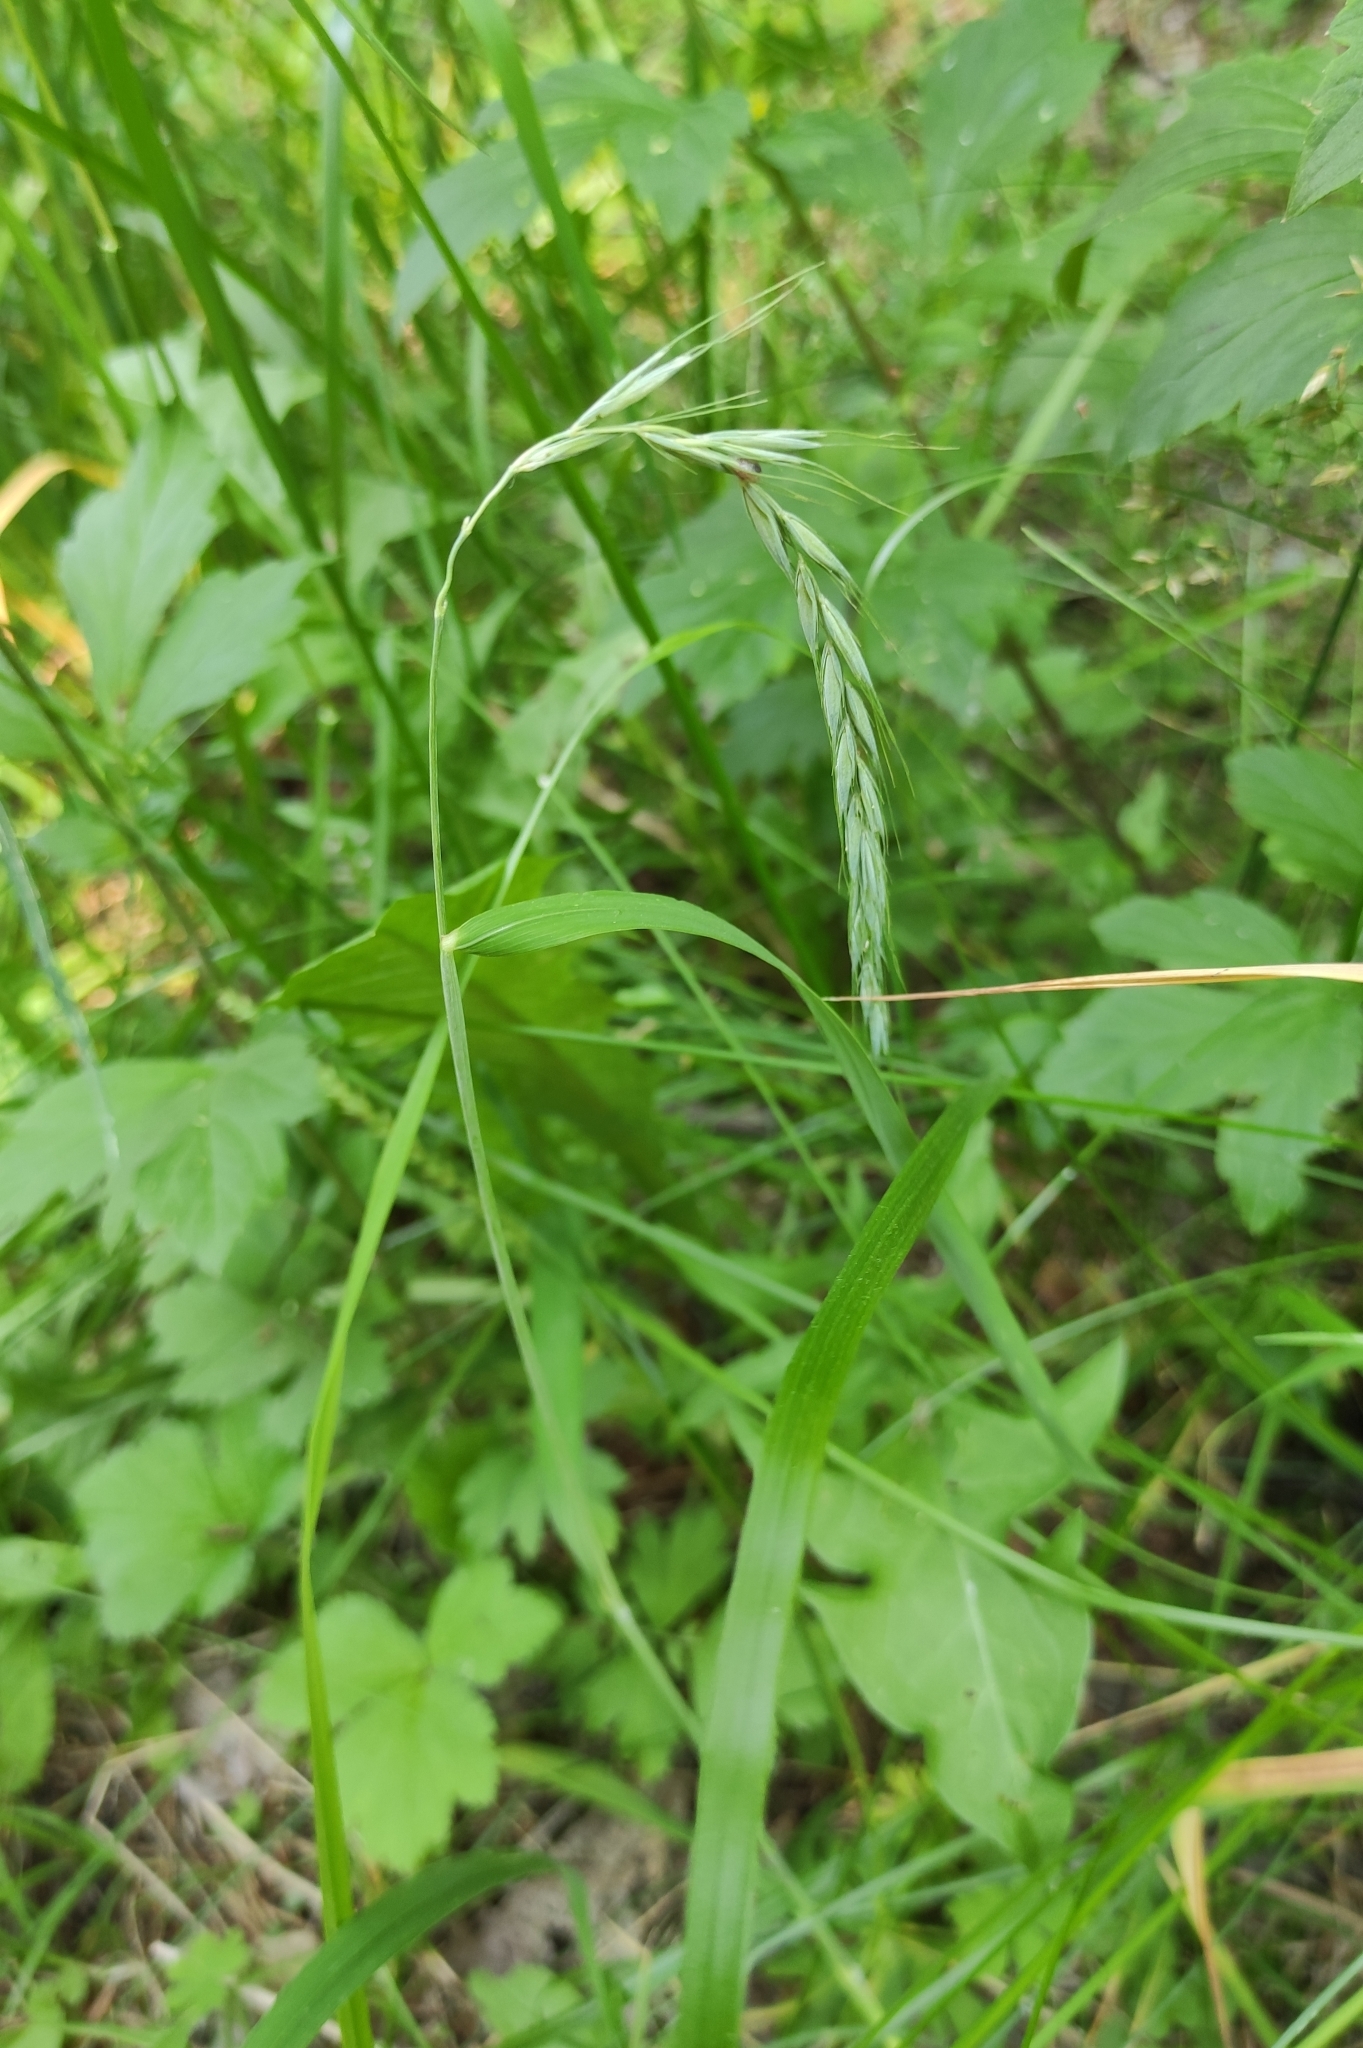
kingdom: Plantae
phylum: Tracheophyta
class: Liliopsida
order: Poales
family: Poaceae
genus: Elymus
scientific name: Elymus sibiricus
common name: Siberian wildrye
